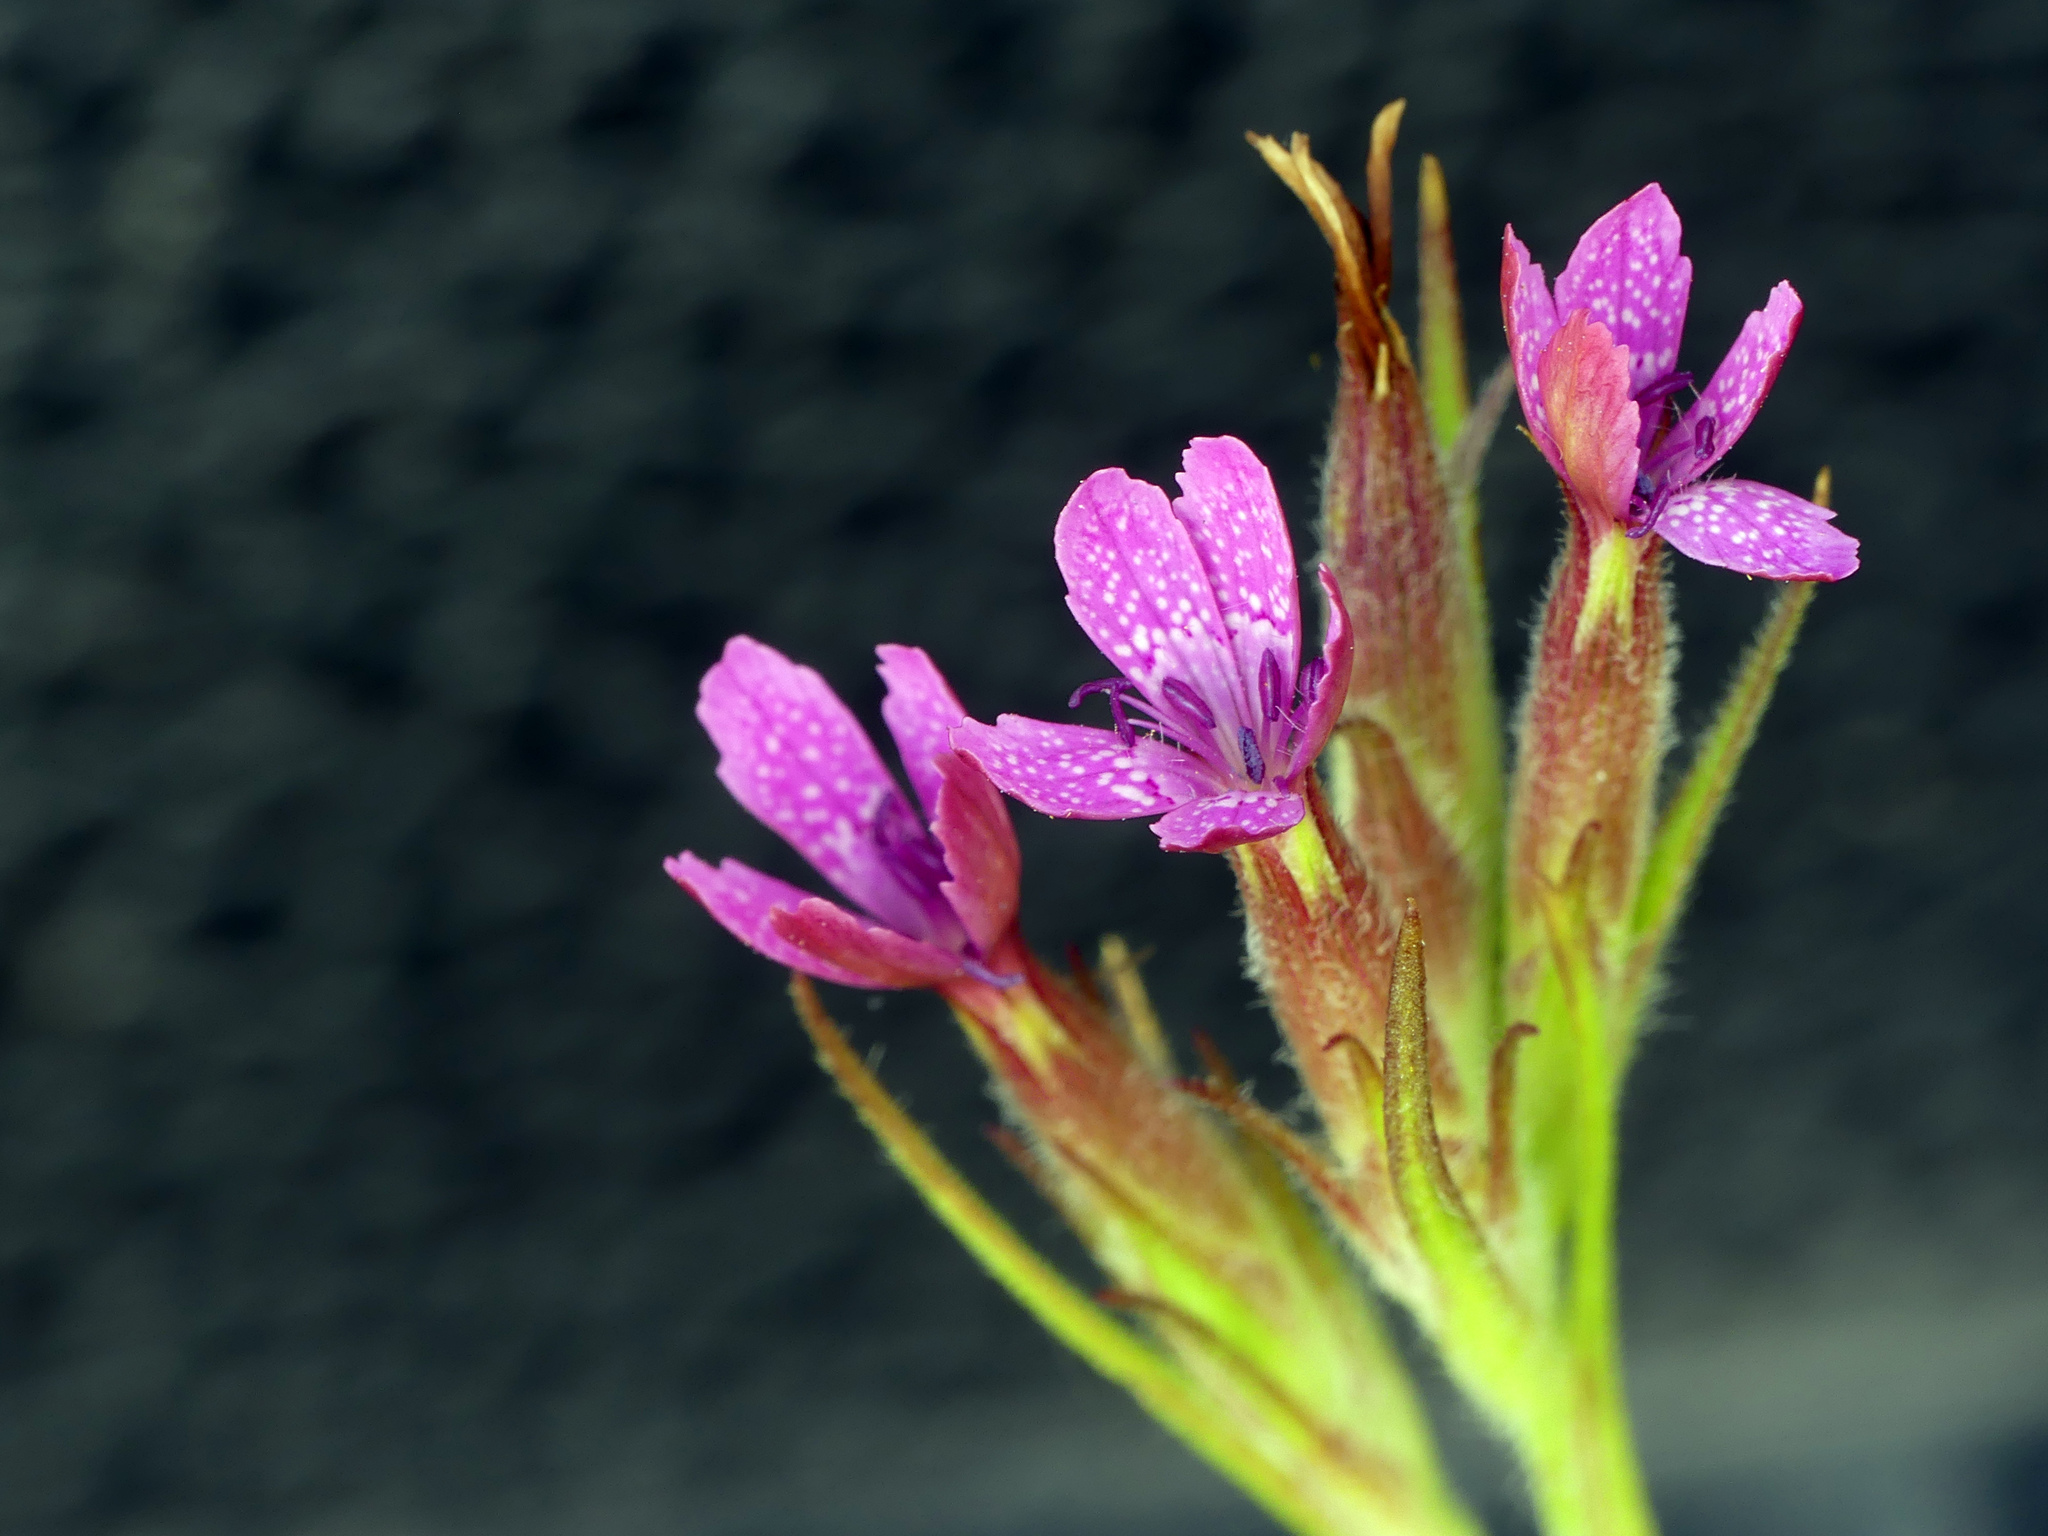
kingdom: Plantae
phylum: Tracheophyta
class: Magnoliopsida
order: Caryophyllales
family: Caryophyllaceae
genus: Dianthus
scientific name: Dianthus armeria
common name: Deptford pink
